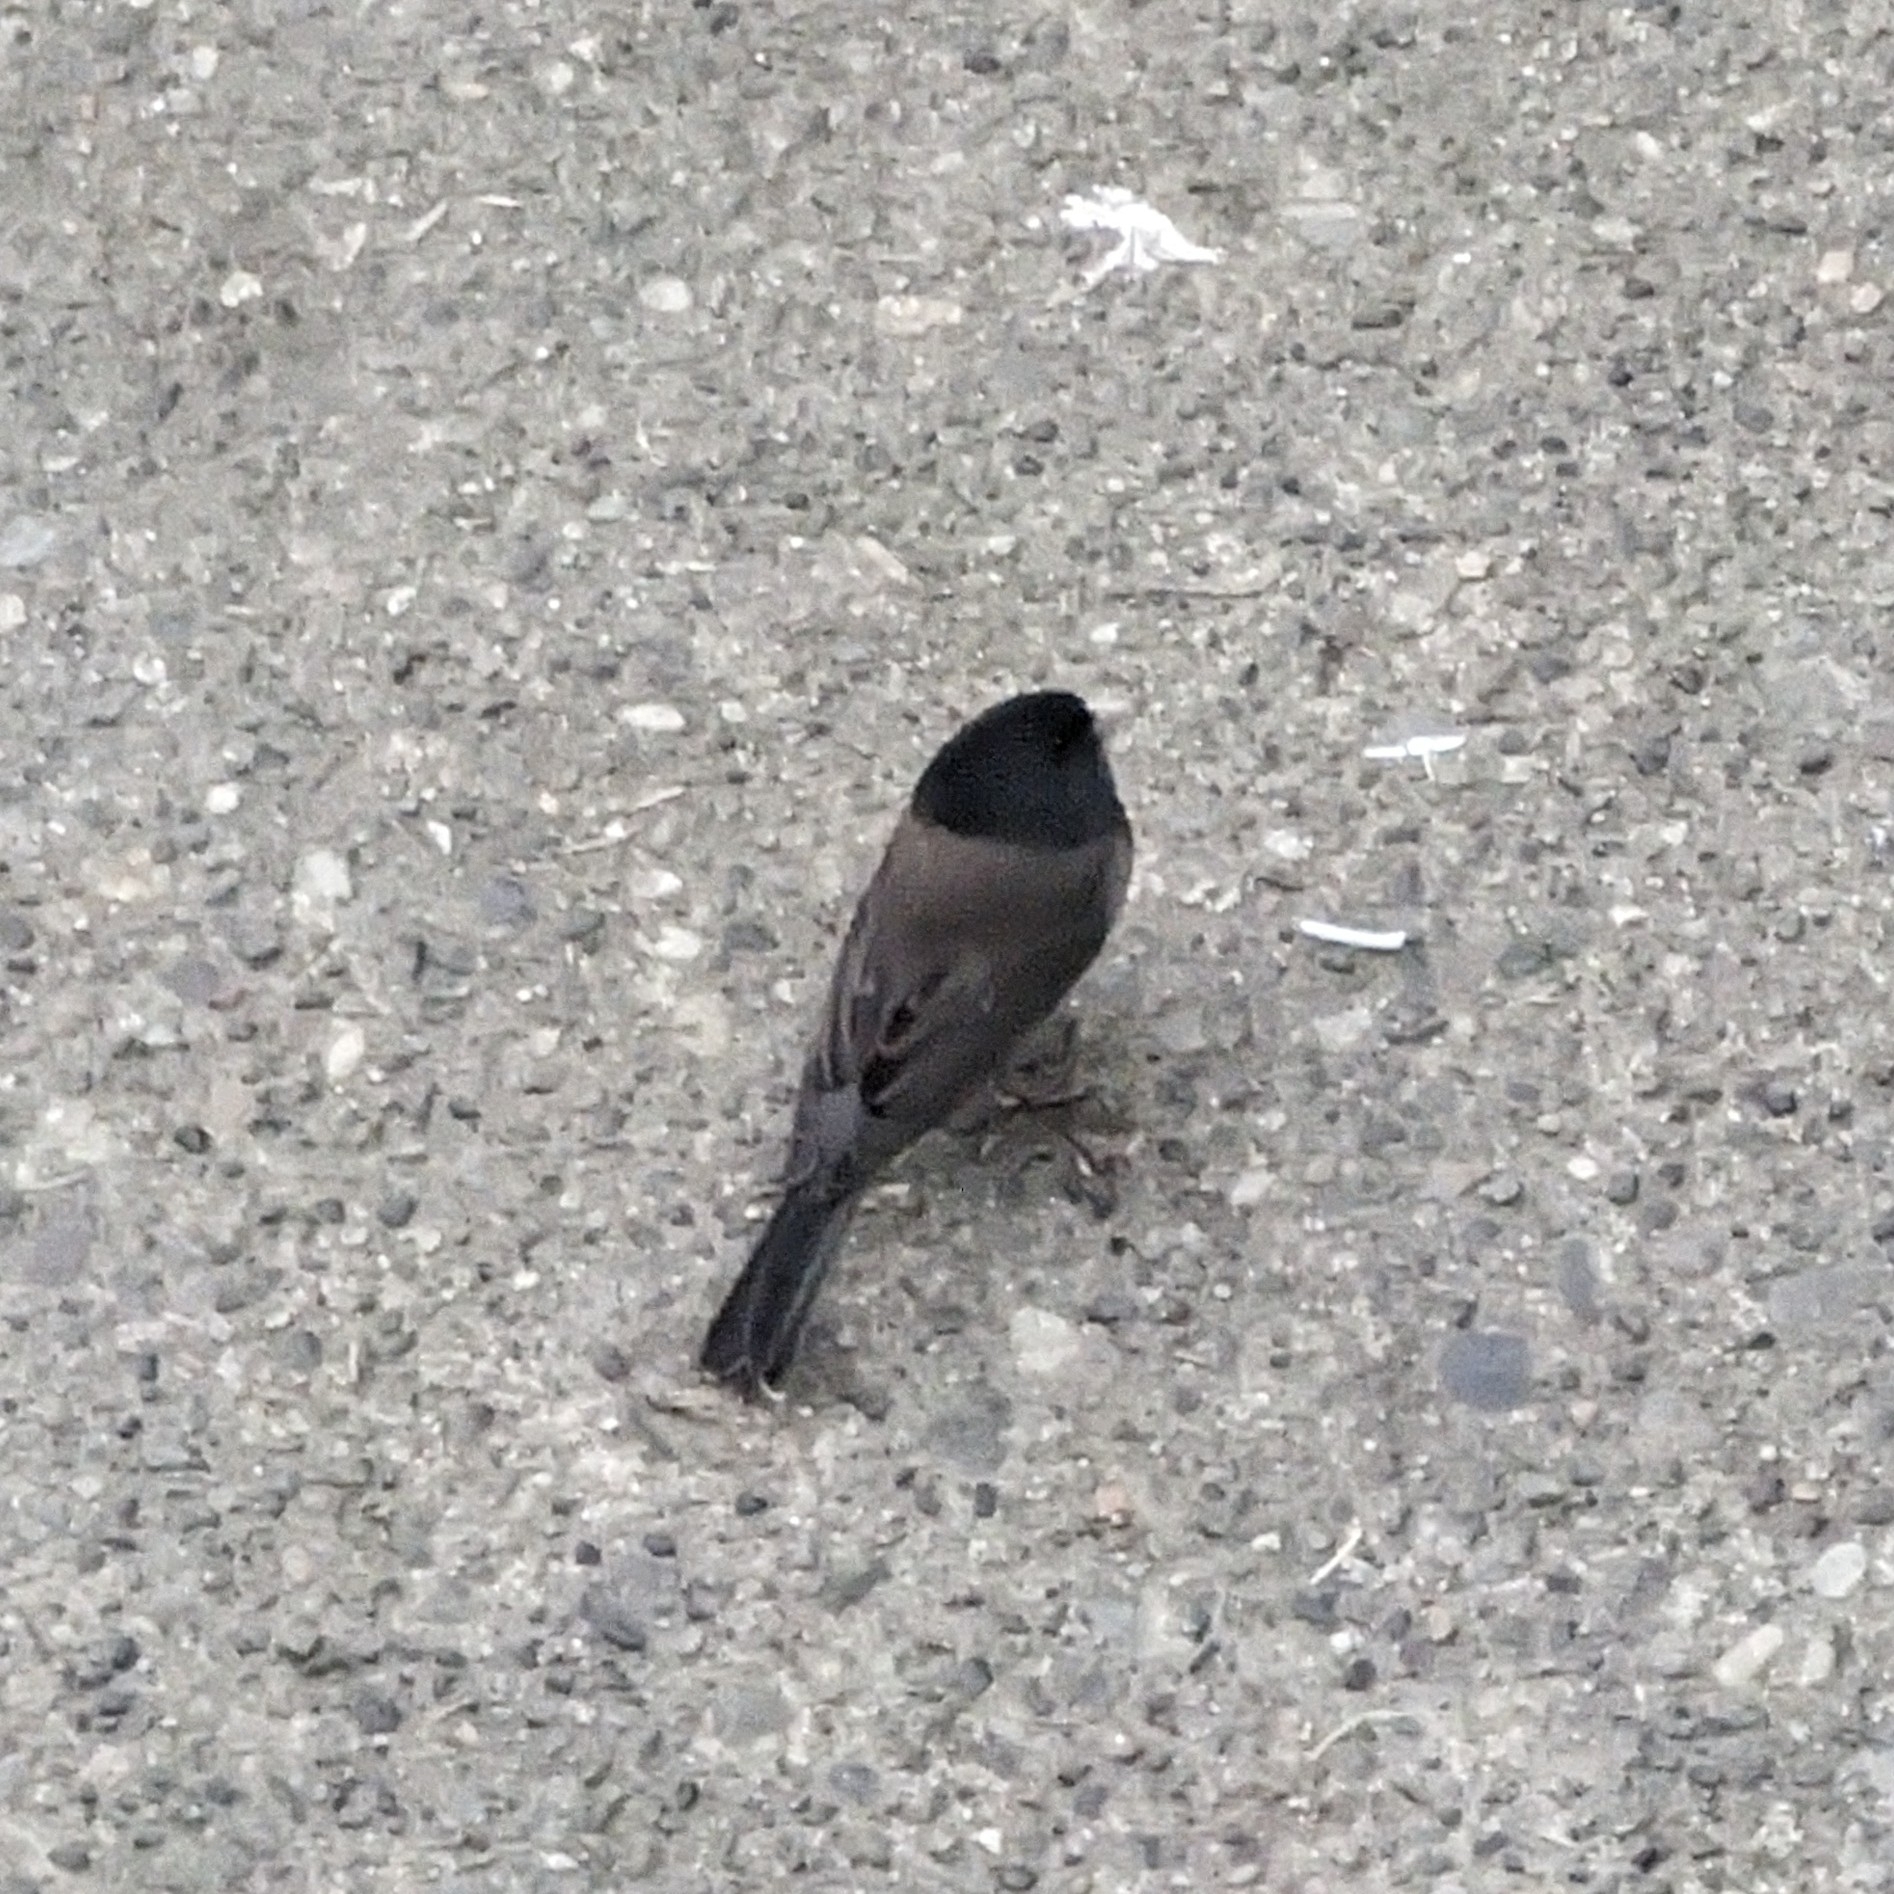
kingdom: Animalia
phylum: Chordata
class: Aves
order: Passeriformes
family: Passerellidae
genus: Junco
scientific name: Junco hyemalis
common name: Dark-eyed junco
